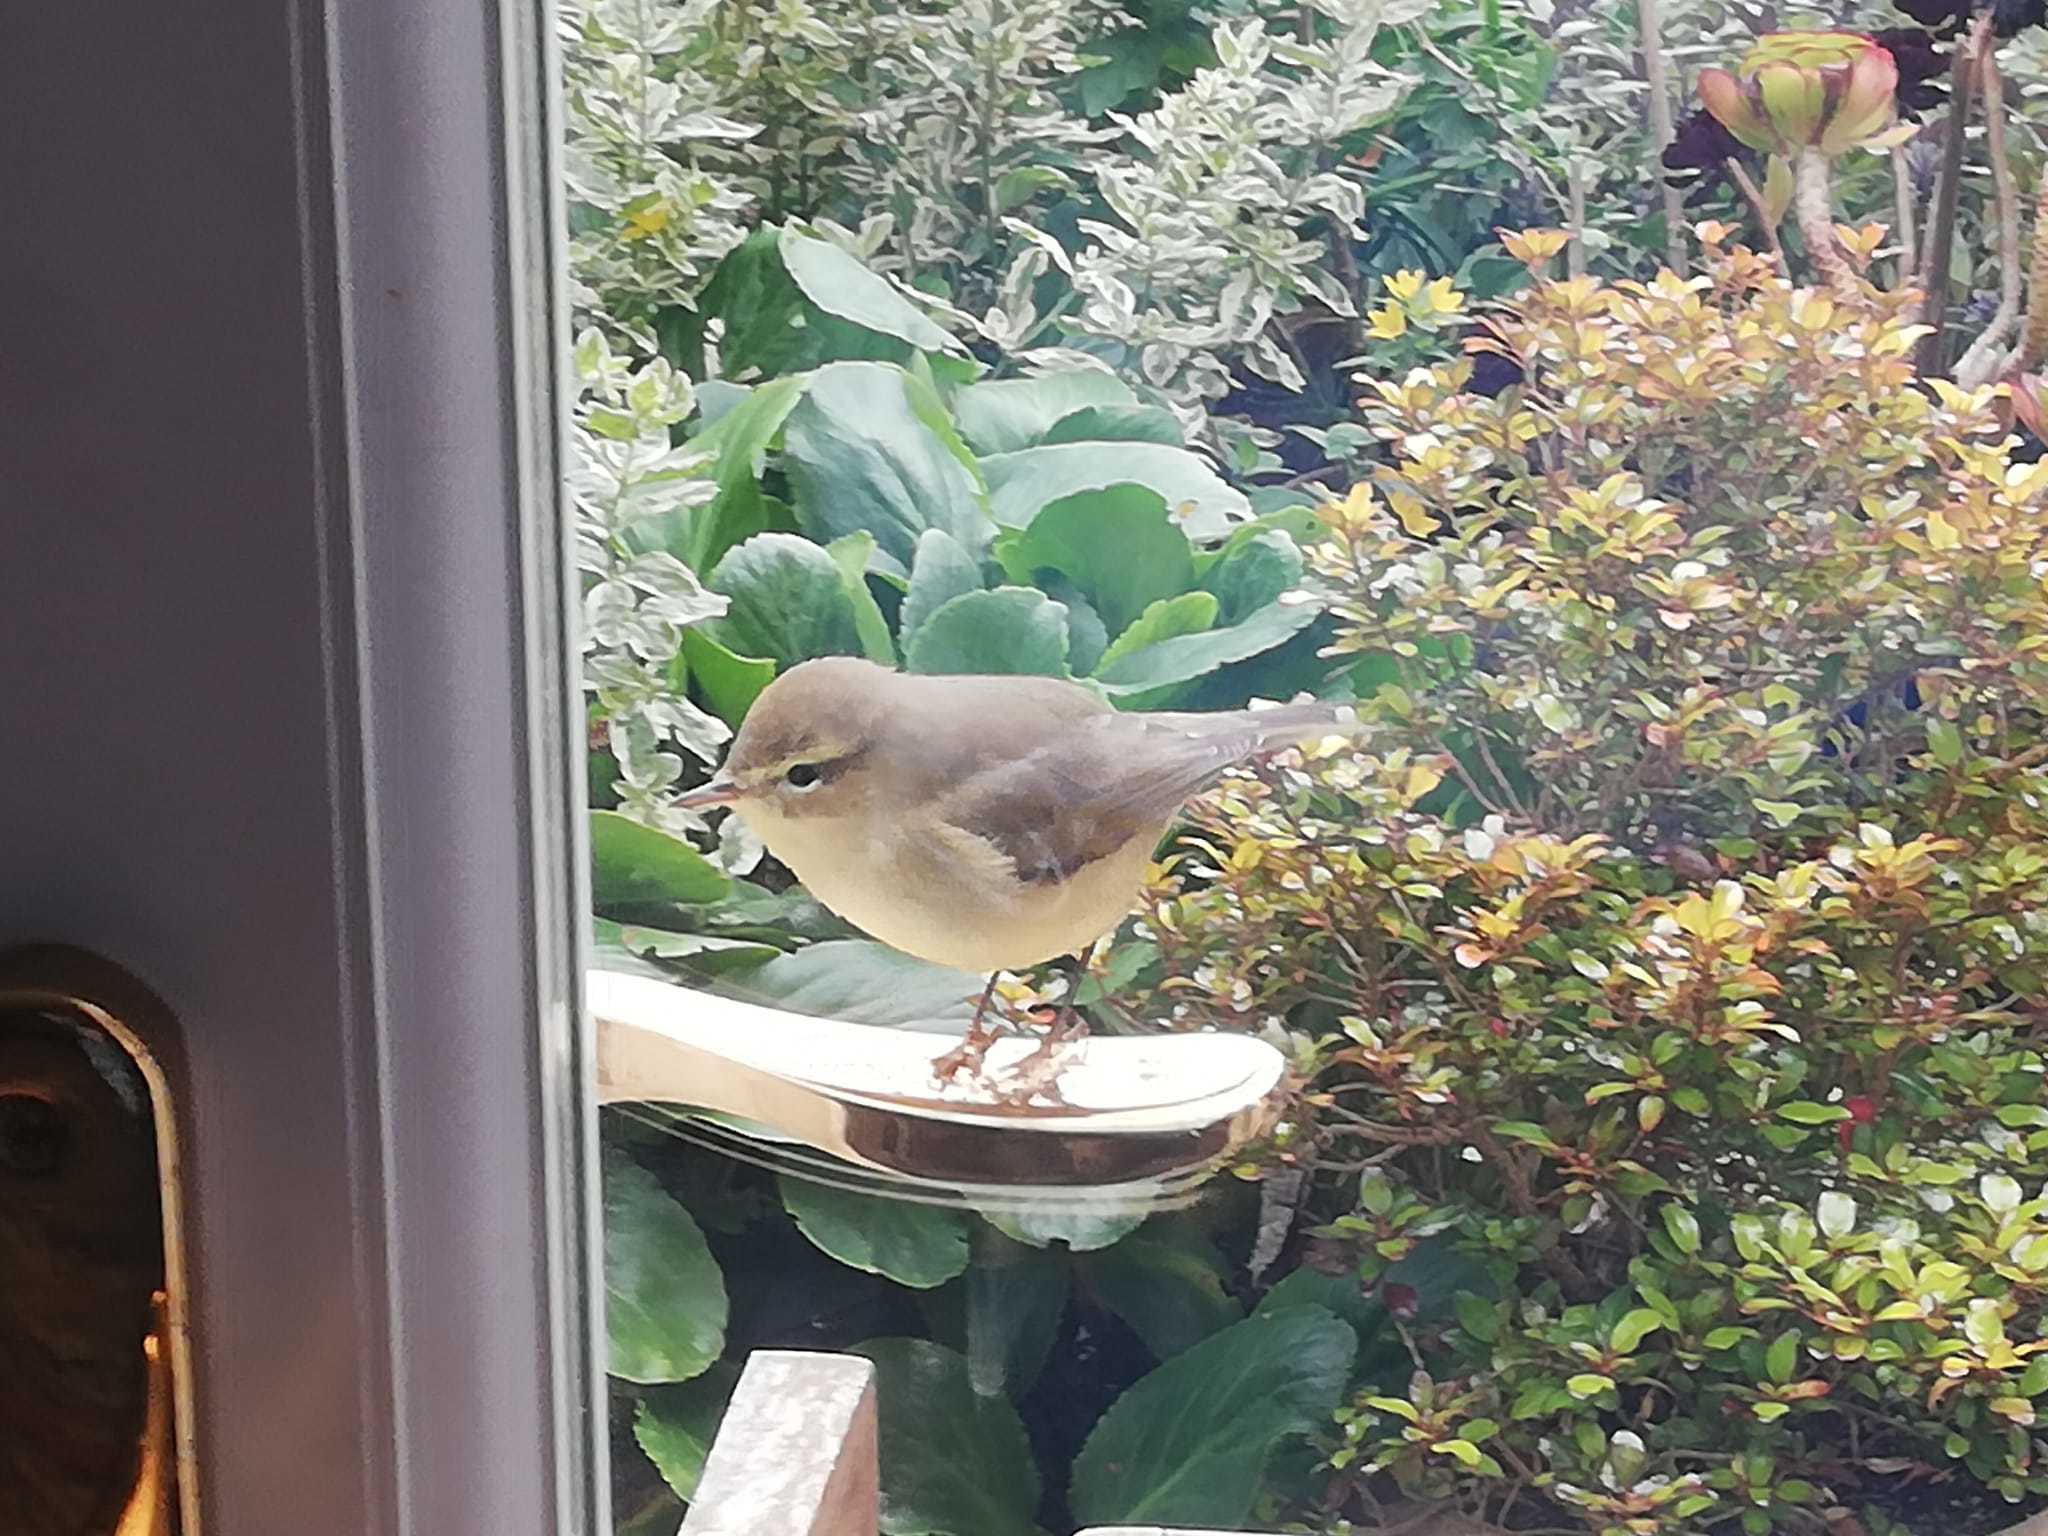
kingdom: Animalia
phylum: Chordata
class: Aves
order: Passeriformes
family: Phylloscopidae
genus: Phylloscopus
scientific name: Phylloscopus collybita
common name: Common chiffchaff
